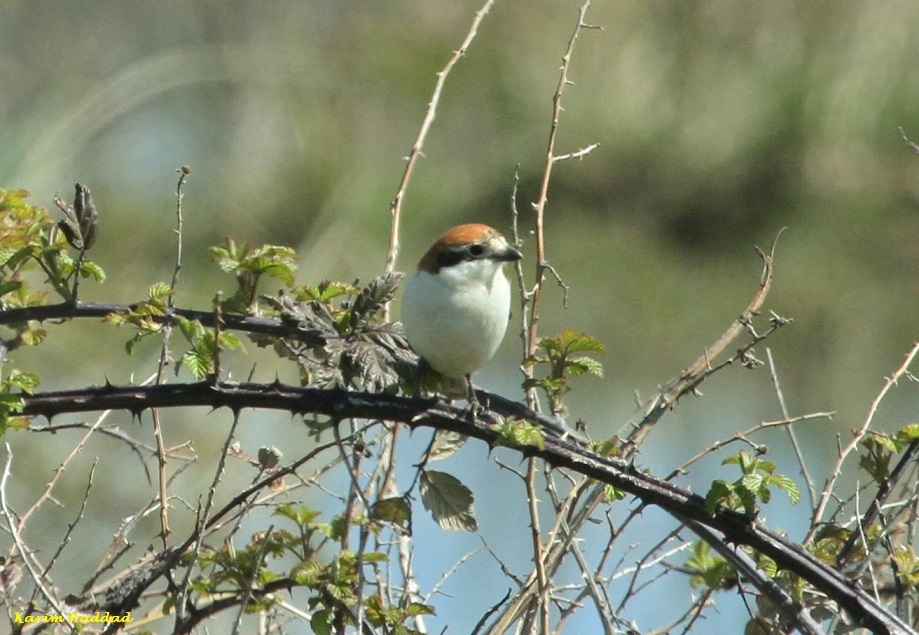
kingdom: Animalia
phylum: Chordata
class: Aves
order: Passeriformes
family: Laniidae
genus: Lanius
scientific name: Lanius senator
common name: Woodchat shrike
